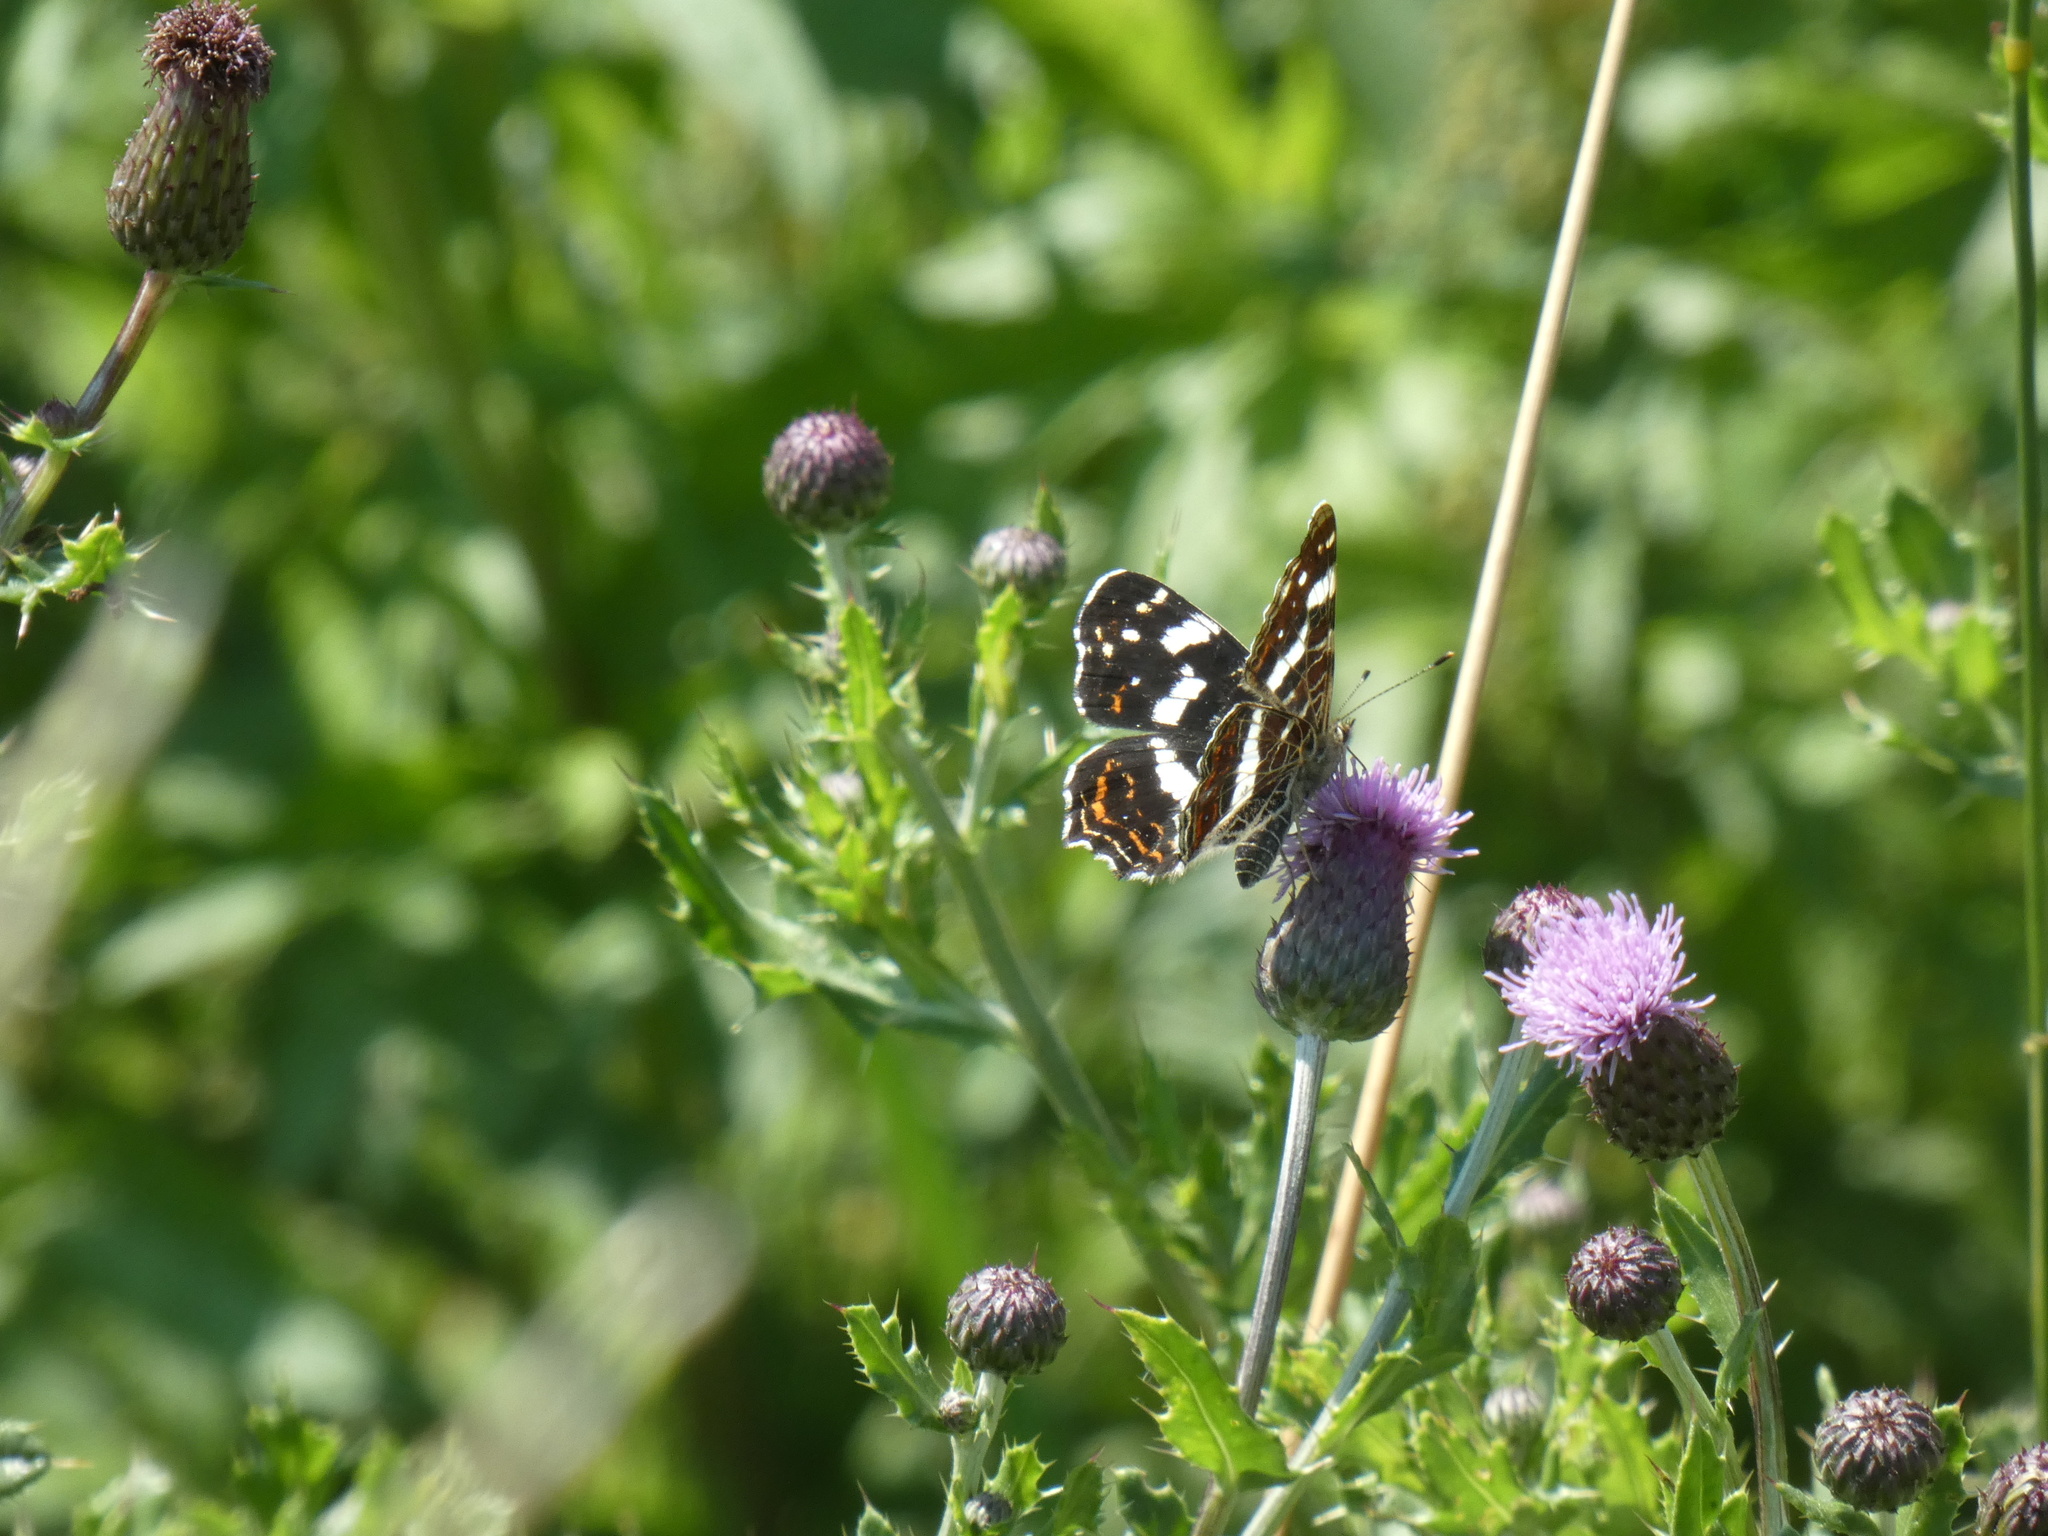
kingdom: Animalia
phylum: Arthropoda
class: Insecta
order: Lepidoptera
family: Nymphalidae
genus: Araschnia
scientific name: Araschnia levana
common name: Map butterfly
